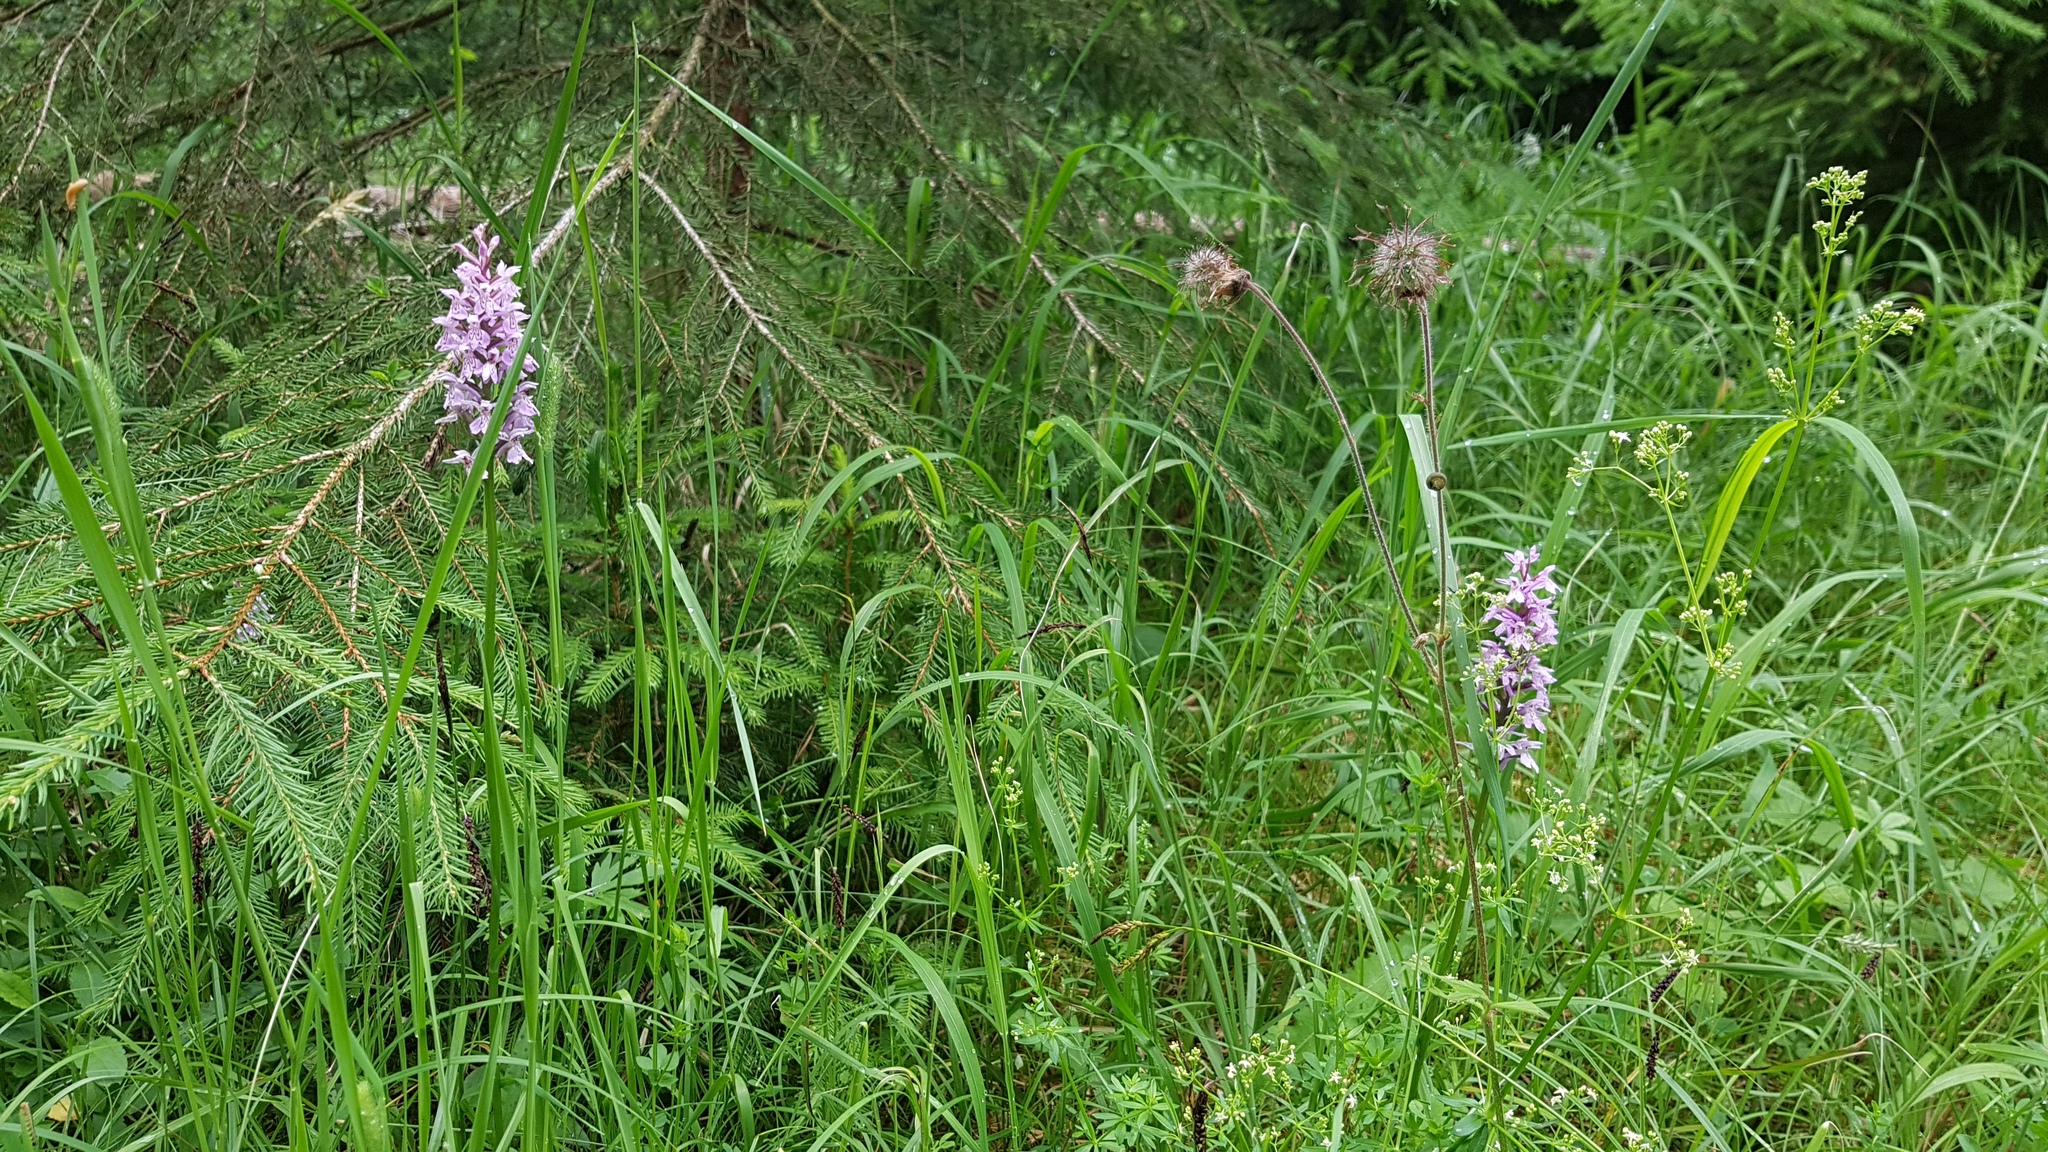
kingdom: Plantae
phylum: Tracheophyta
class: Liliopsida
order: Asparagales
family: Orchidaceae
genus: Dactylorhiza
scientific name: Dactylorhiza maculata
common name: Heath spotted-orchid
